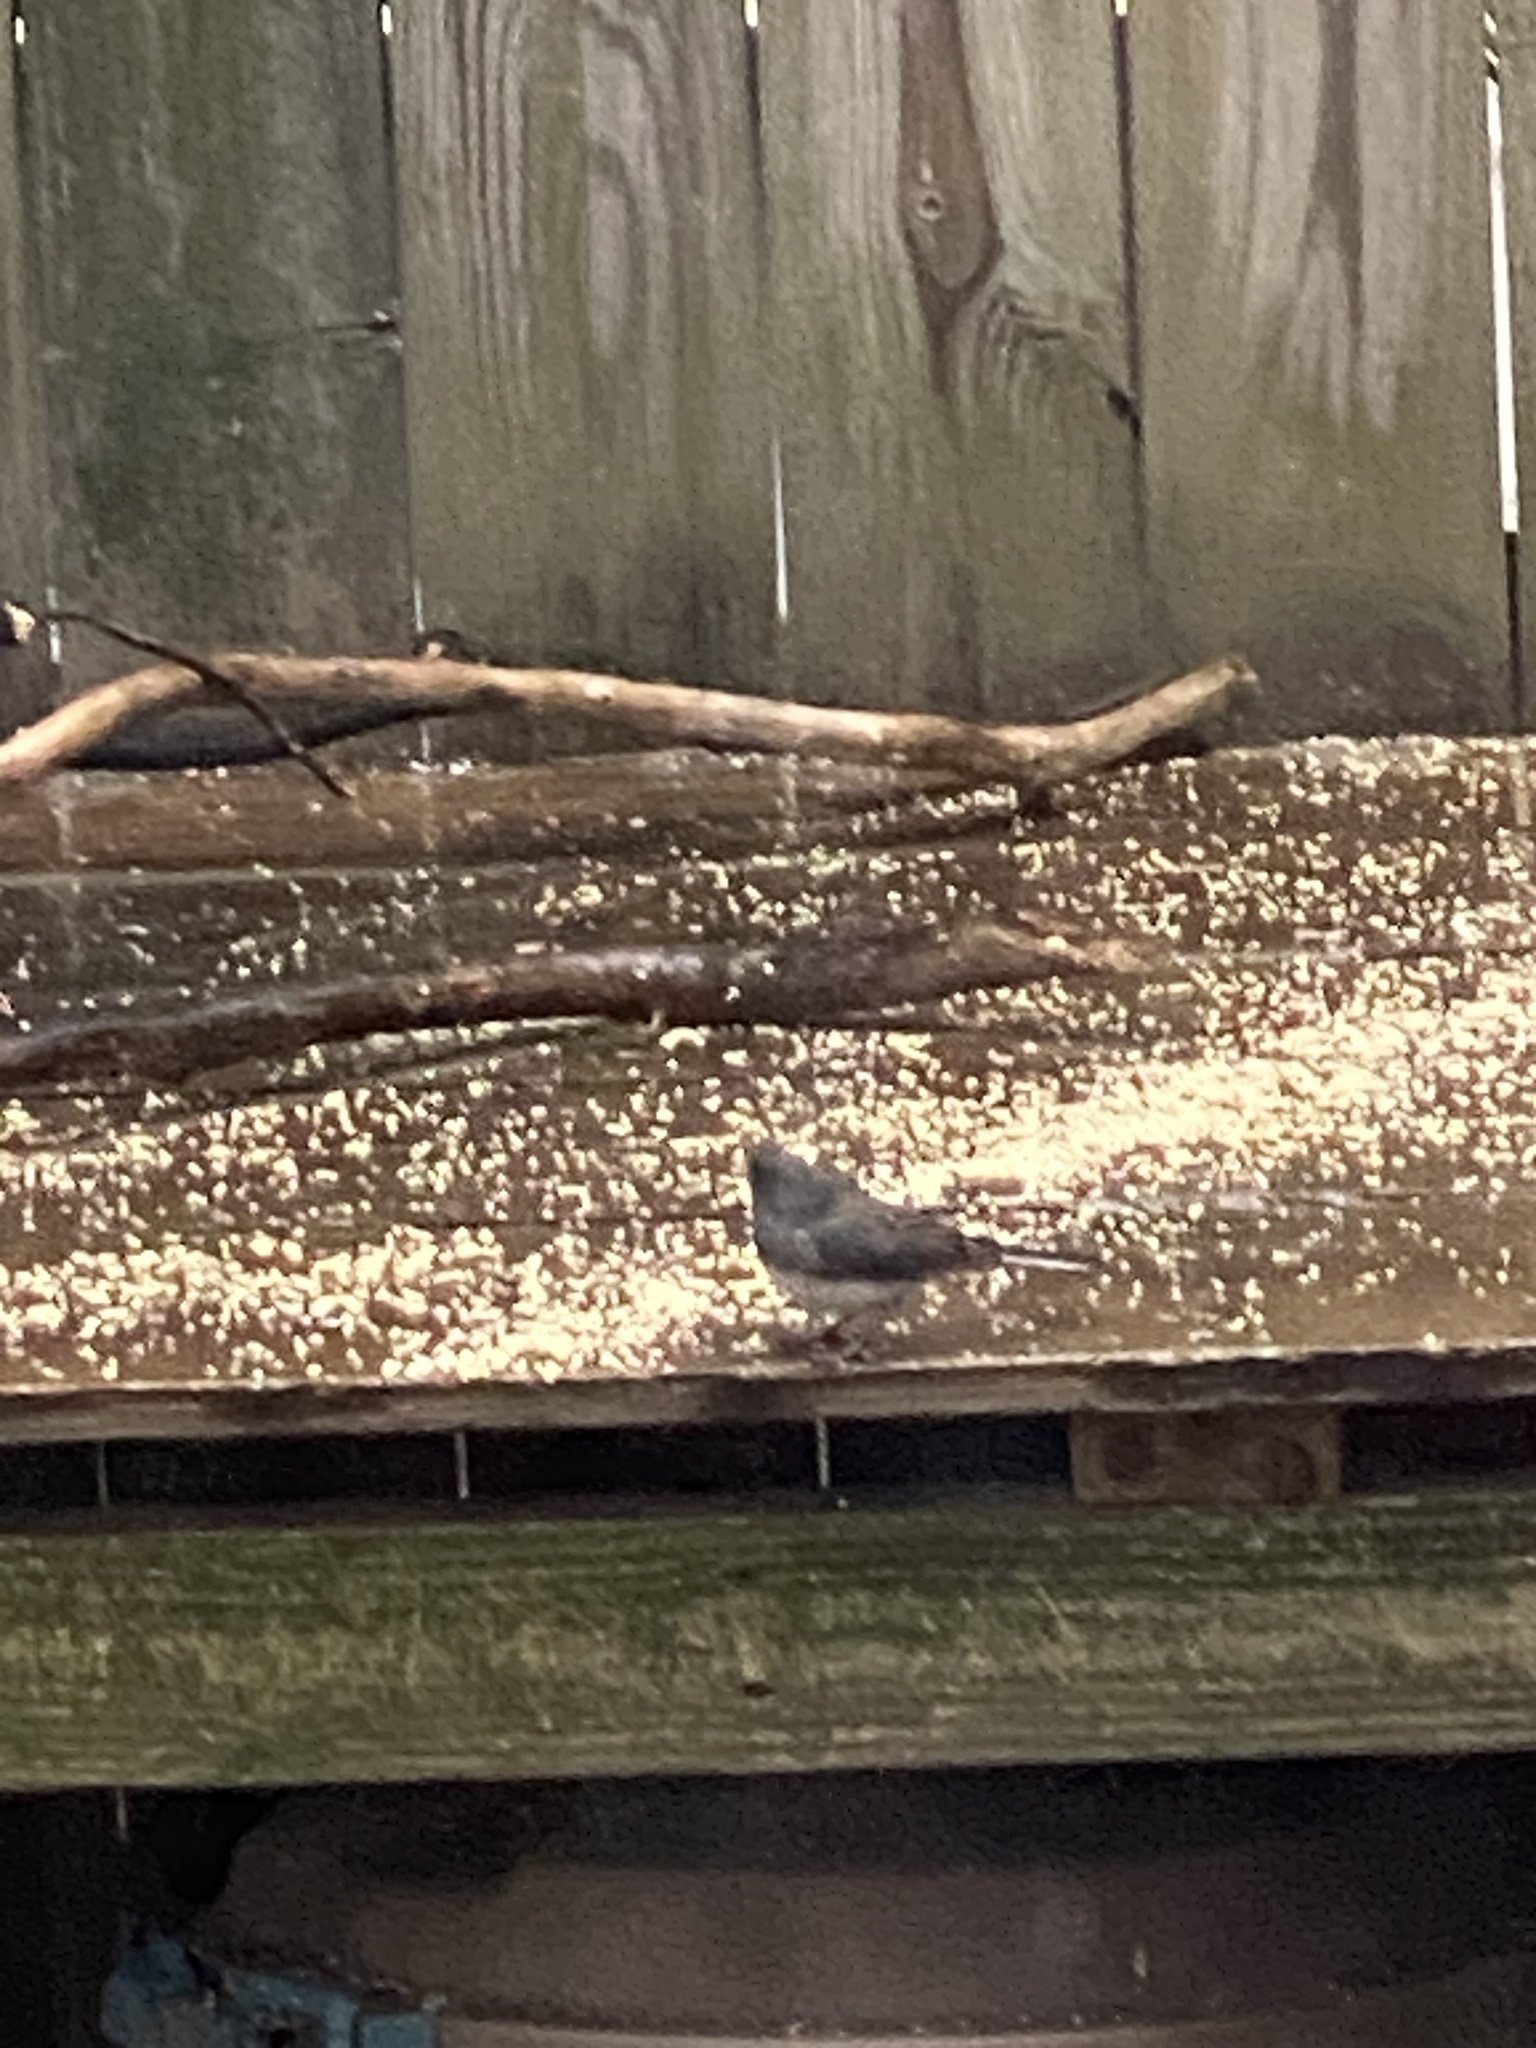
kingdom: Animalia
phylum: Chordata
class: Aves
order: Passeriformes
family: Passerellidae
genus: Junco
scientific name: Junco hyemalis
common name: Dark-eyed junco
